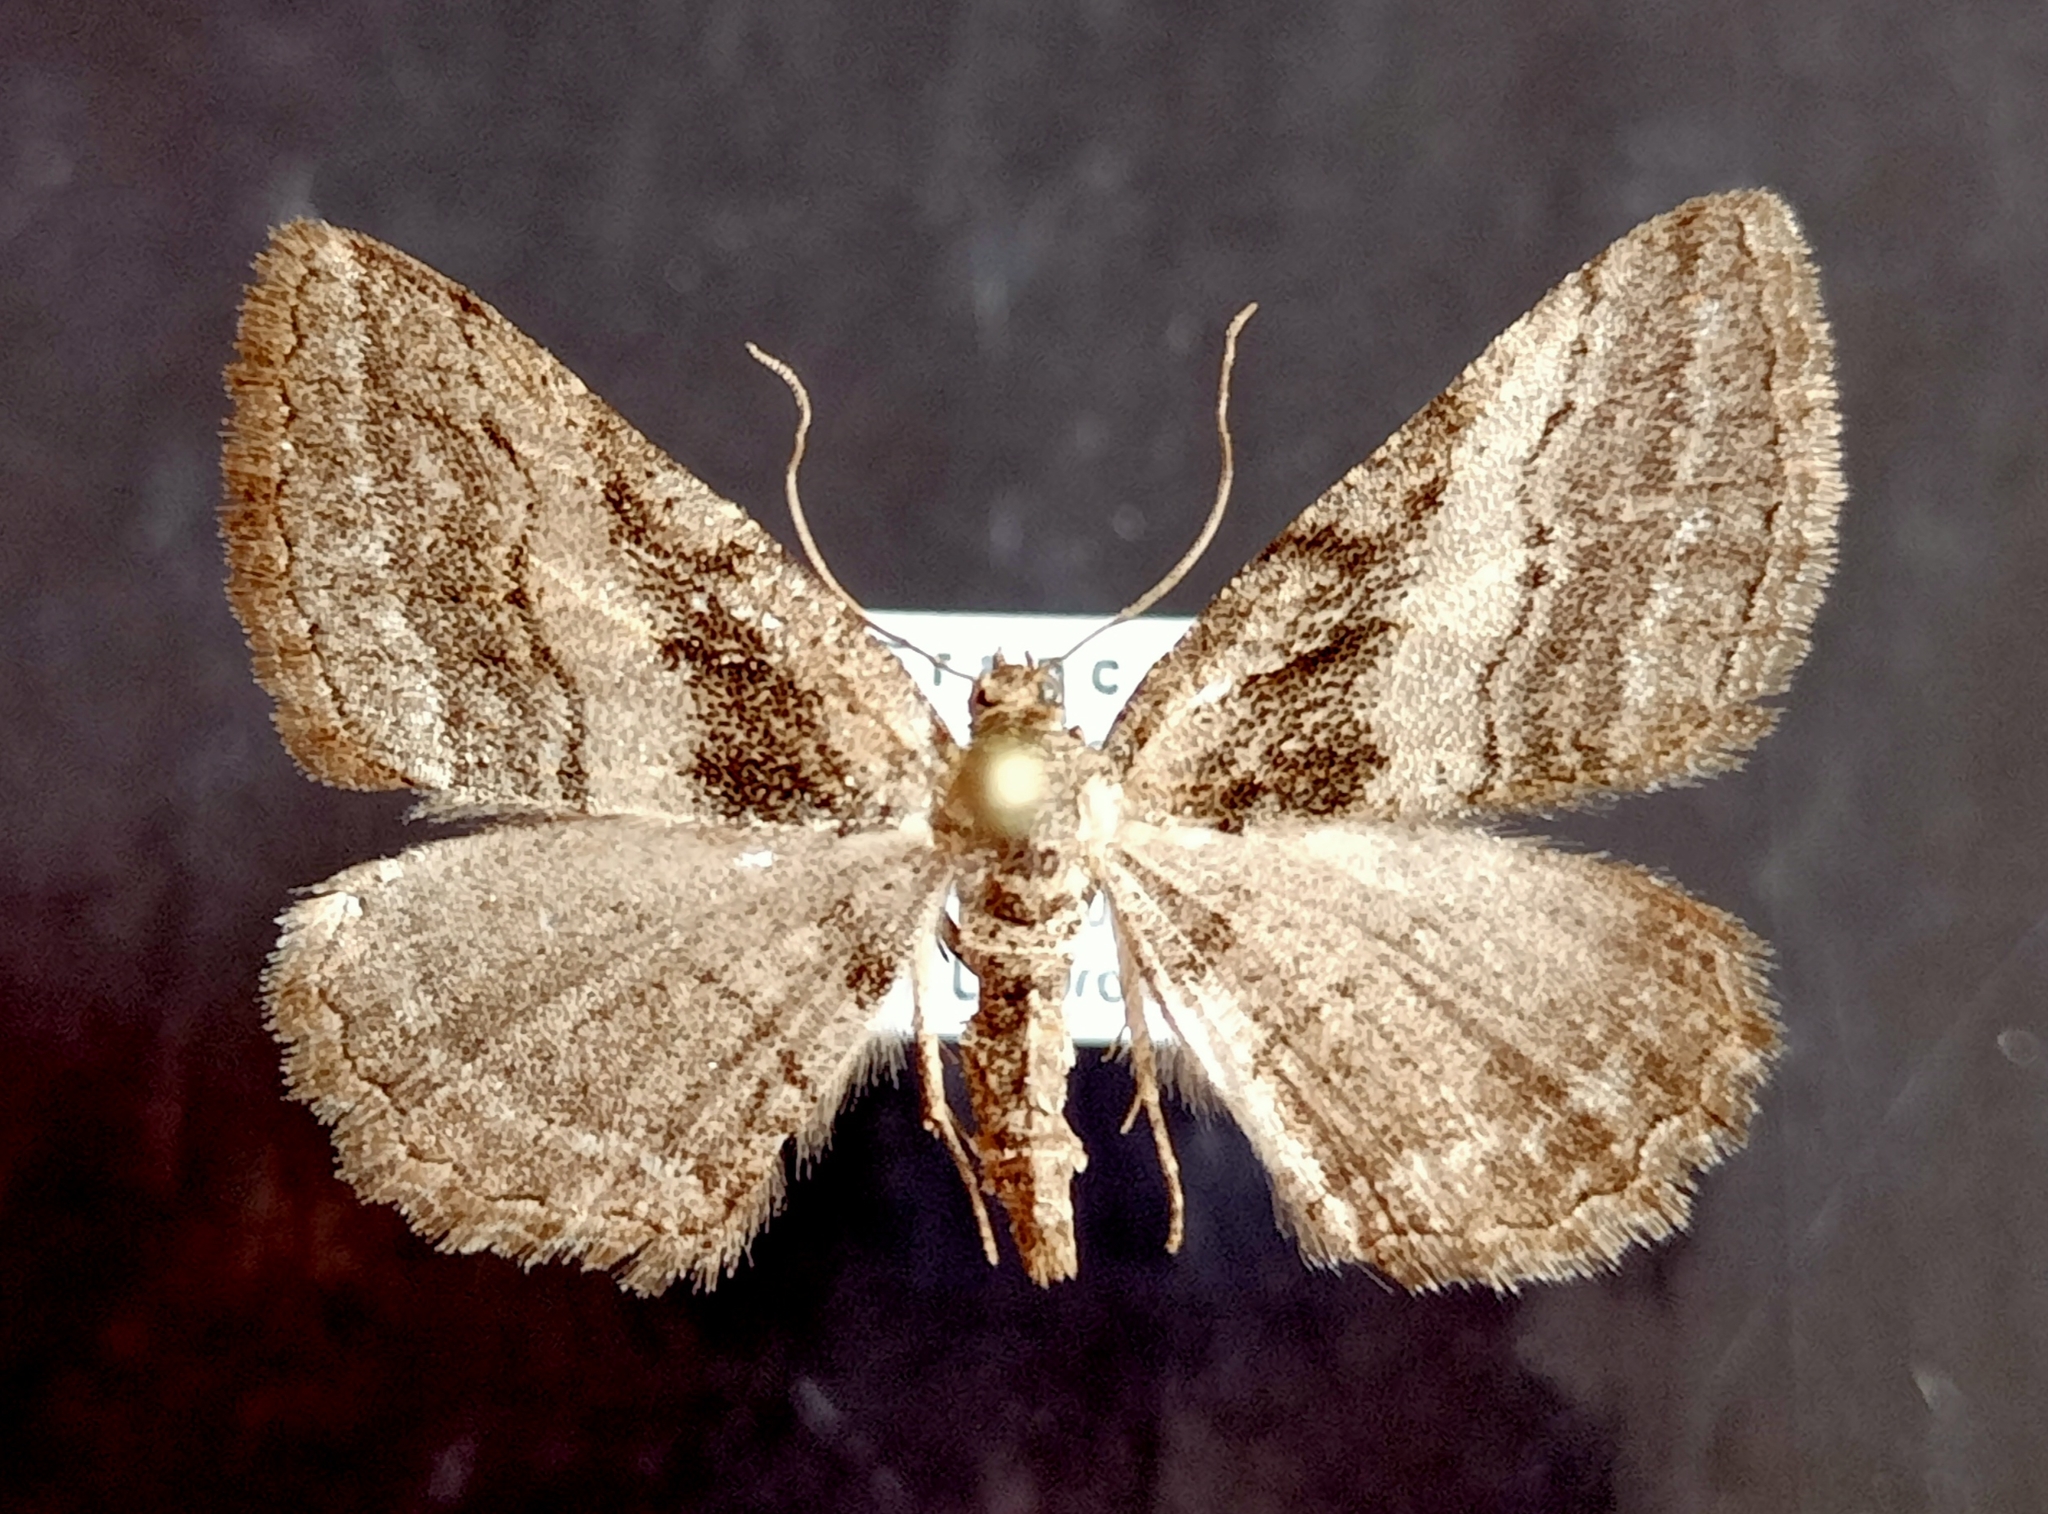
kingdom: Animalia
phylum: Arthropoda
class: Insecta
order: Lepidoptera
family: Geometridae
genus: Rhoptria
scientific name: Rhoptria asperaria
